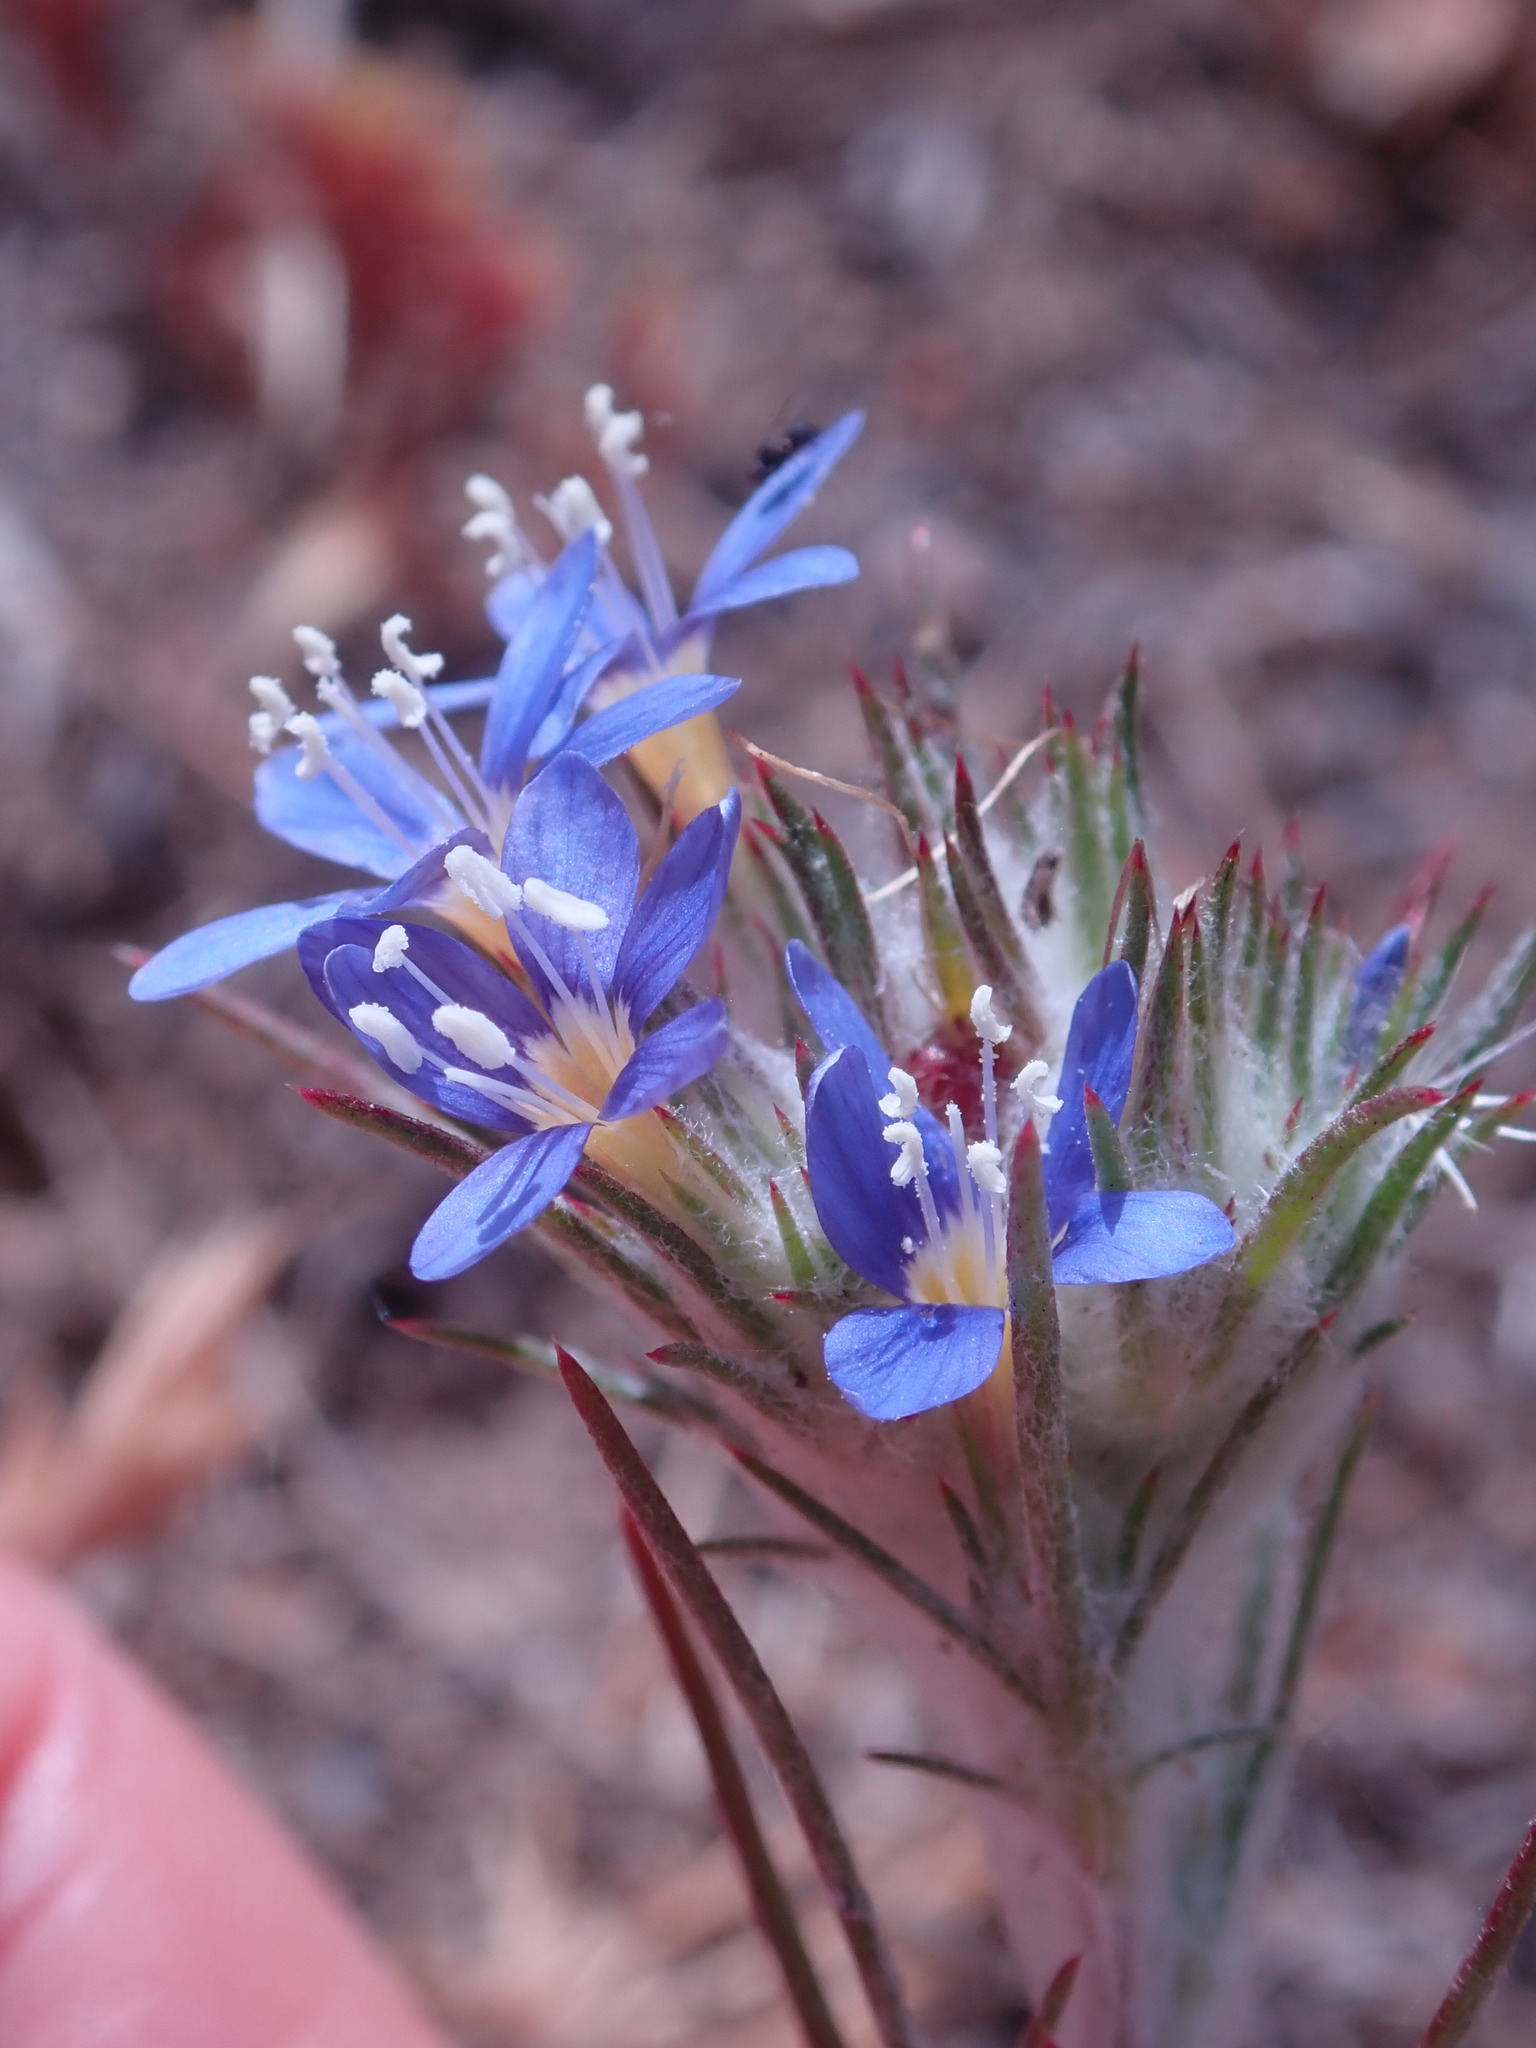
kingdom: Plantae
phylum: Tracheophyta
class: Magnoliopsida
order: Ericales
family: Polemoniaceae
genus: Eriastrum
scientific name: Eriastrum virgatum
